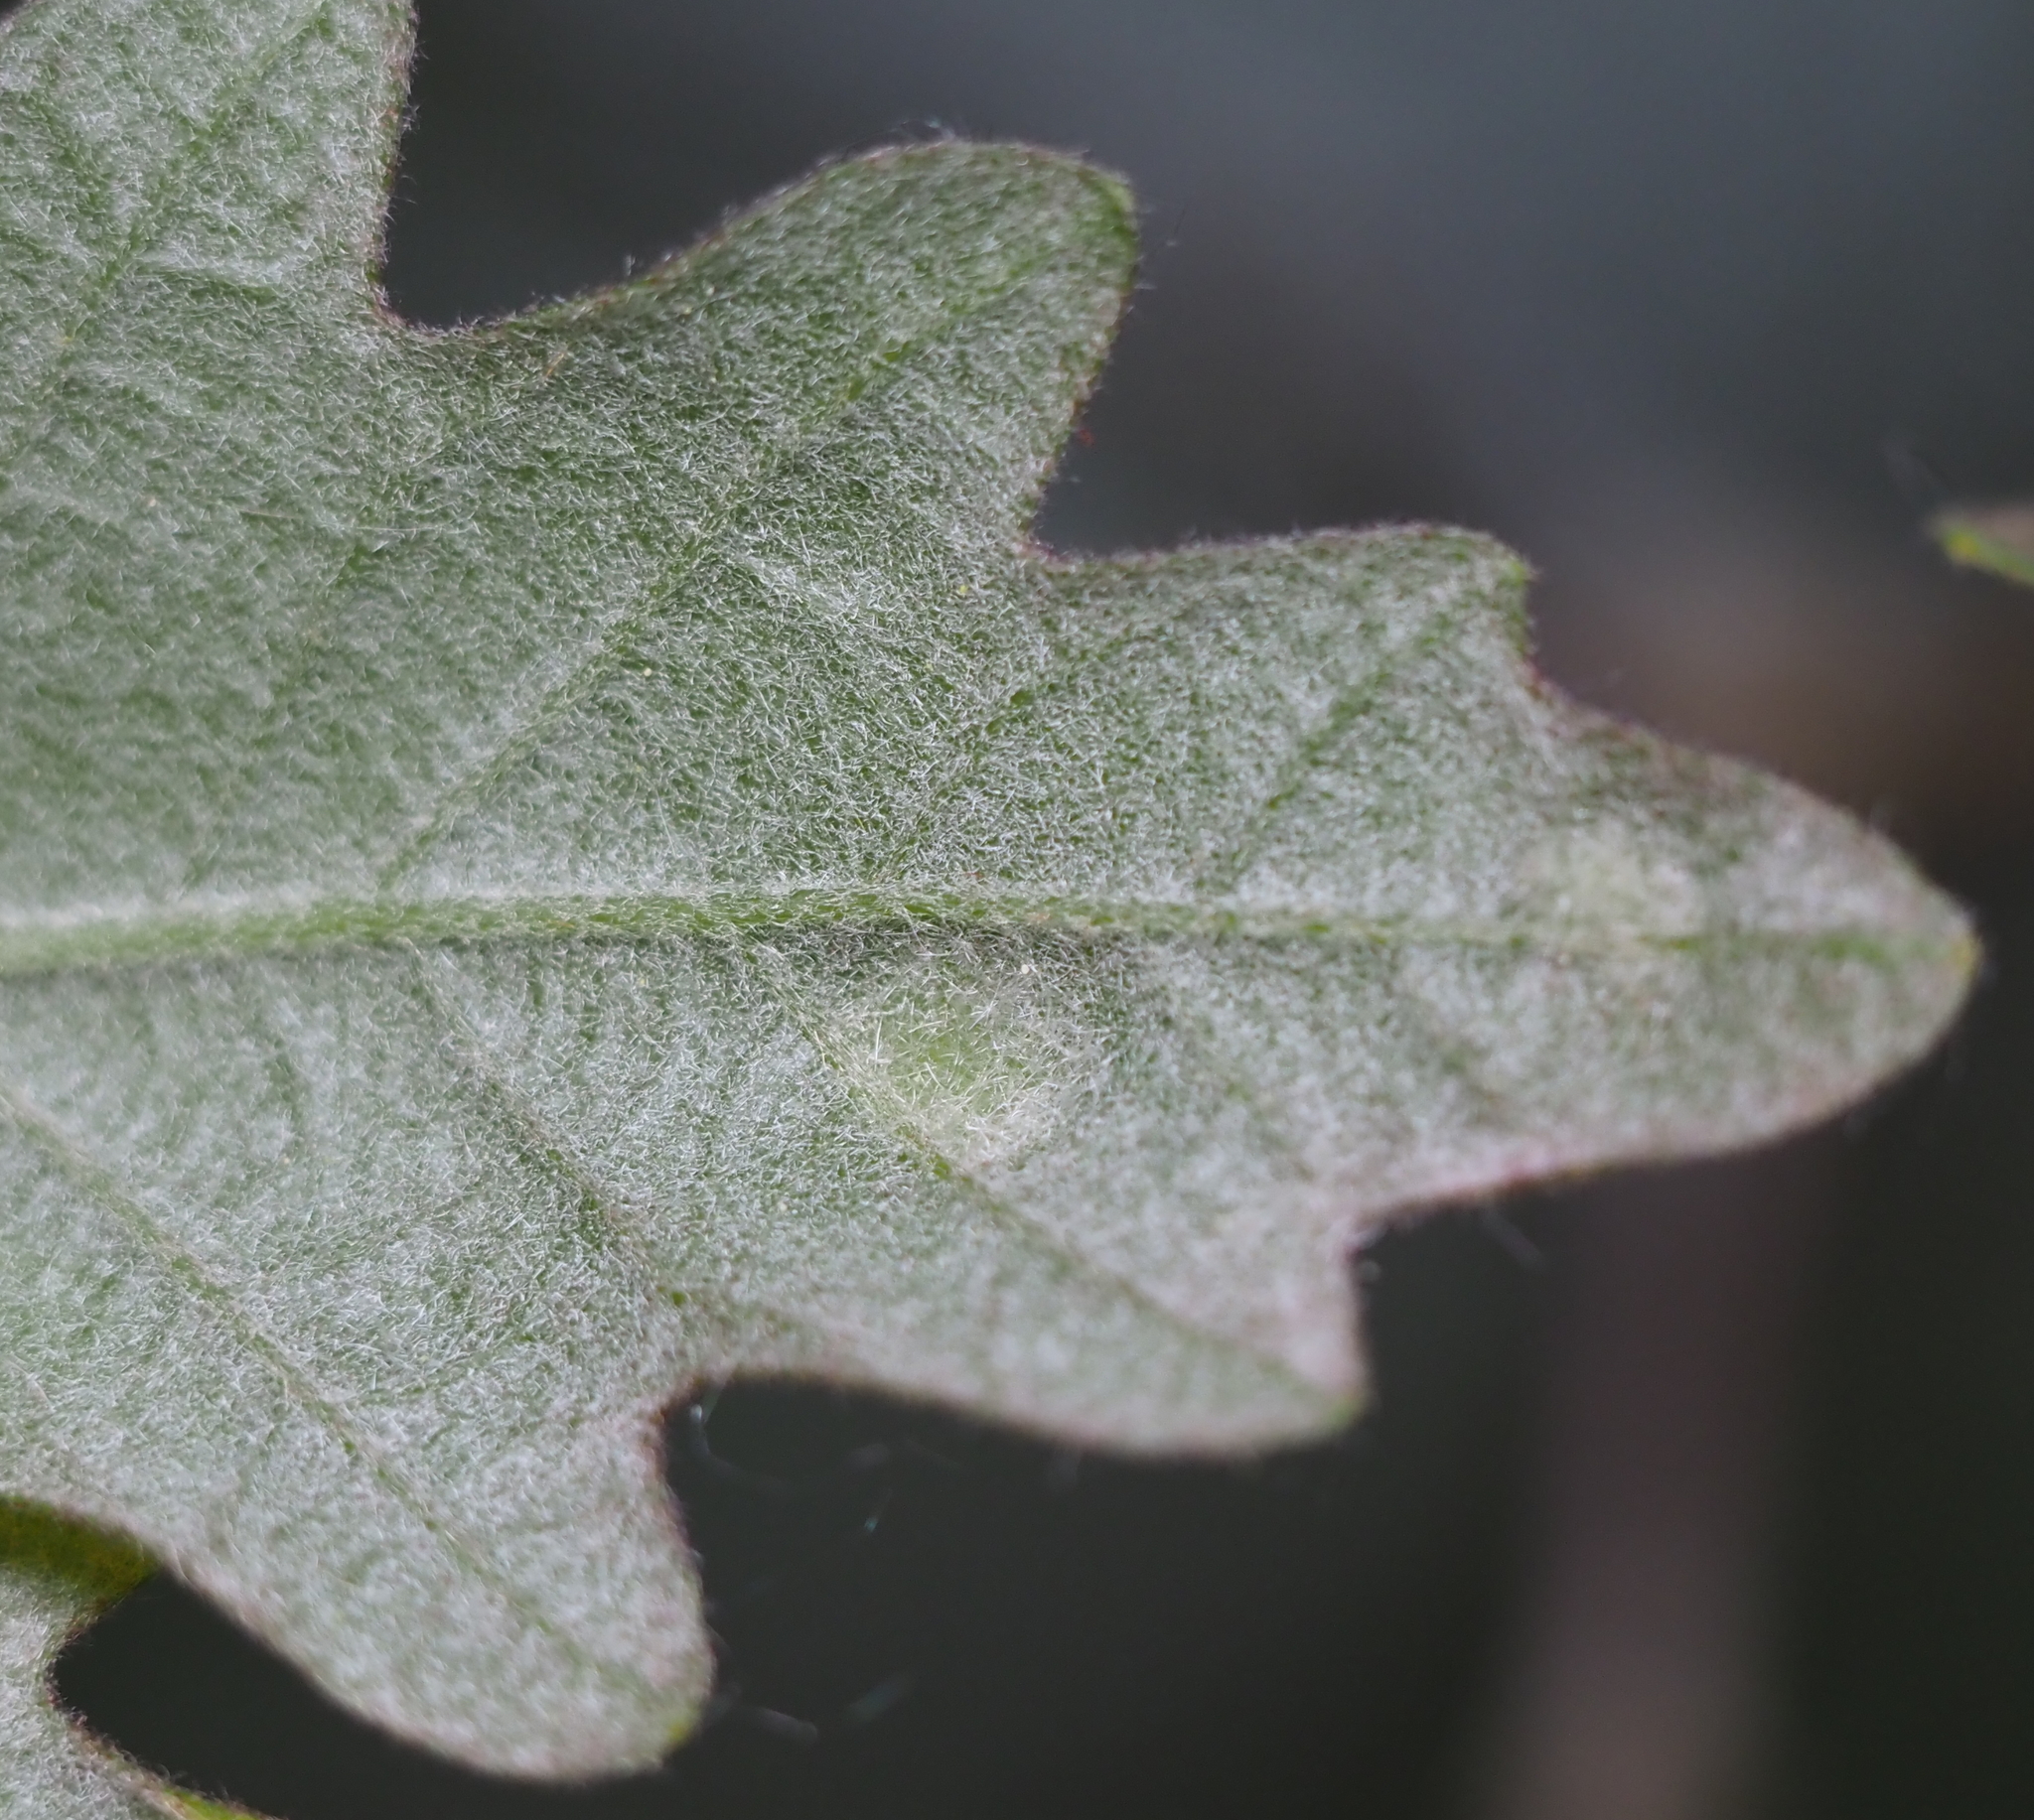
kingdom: Animalia
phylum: Arthropoda
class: Arachnida
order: Trombidiformes
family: Eriophyidae
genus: Aceria
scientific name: Aceria
